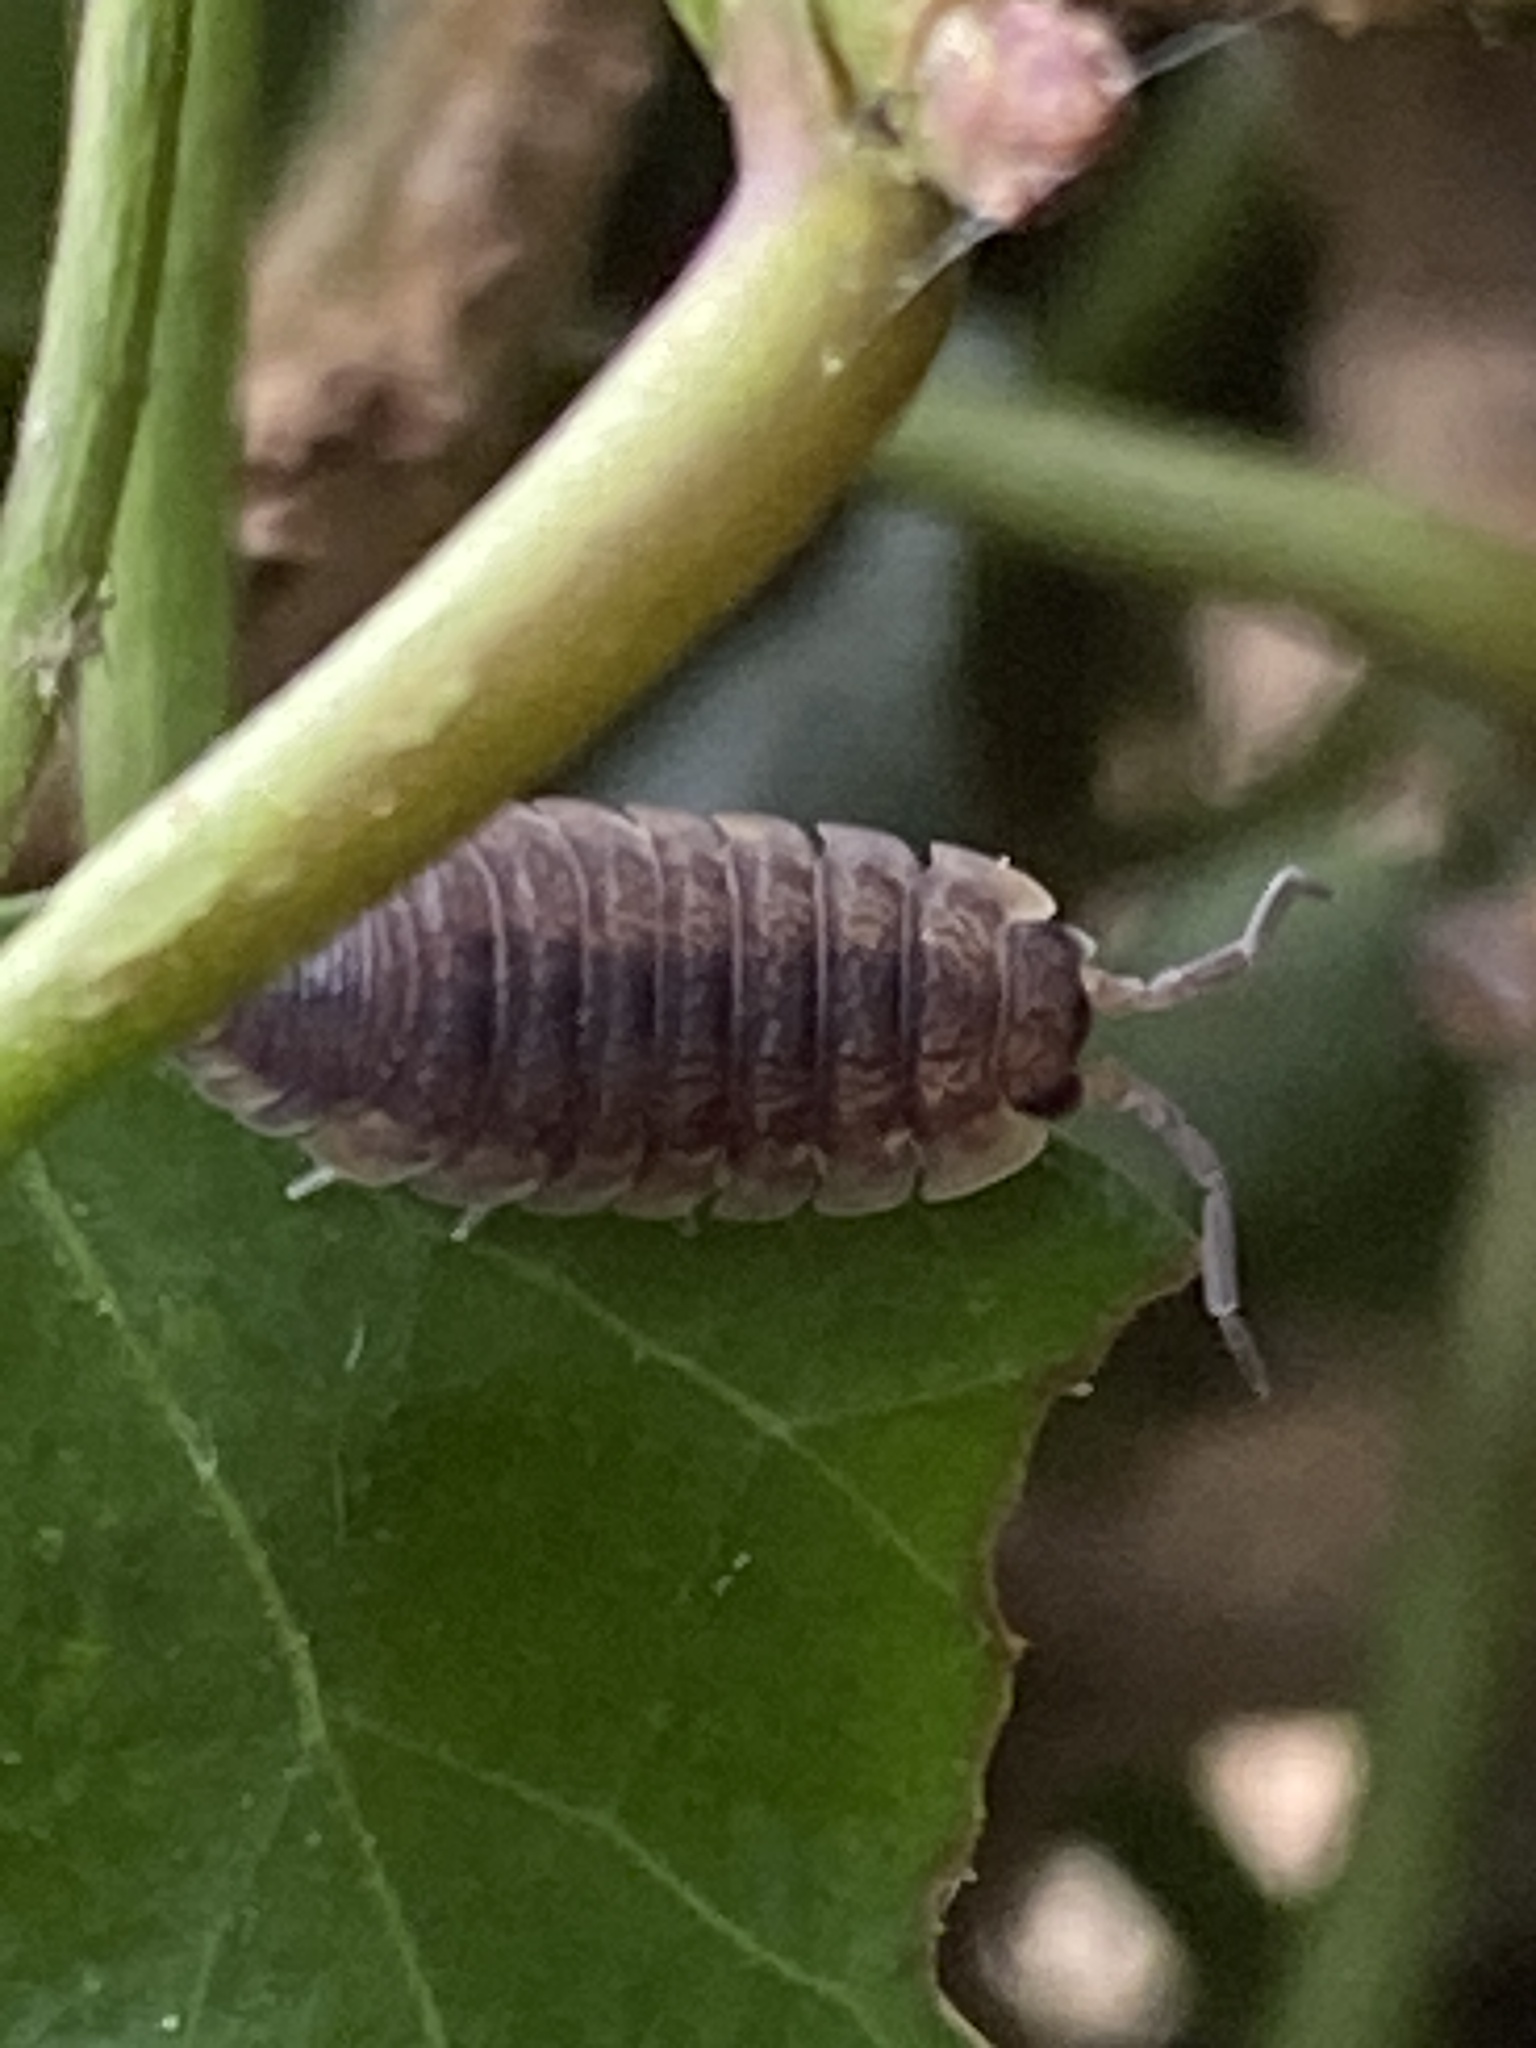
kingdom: Animalia
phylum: Arthropoda
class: Malacostraca
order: Isopoda
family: Porcellionidae
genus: Porcellio
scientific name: Porcellio scaber
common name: Common rough woodlouse
